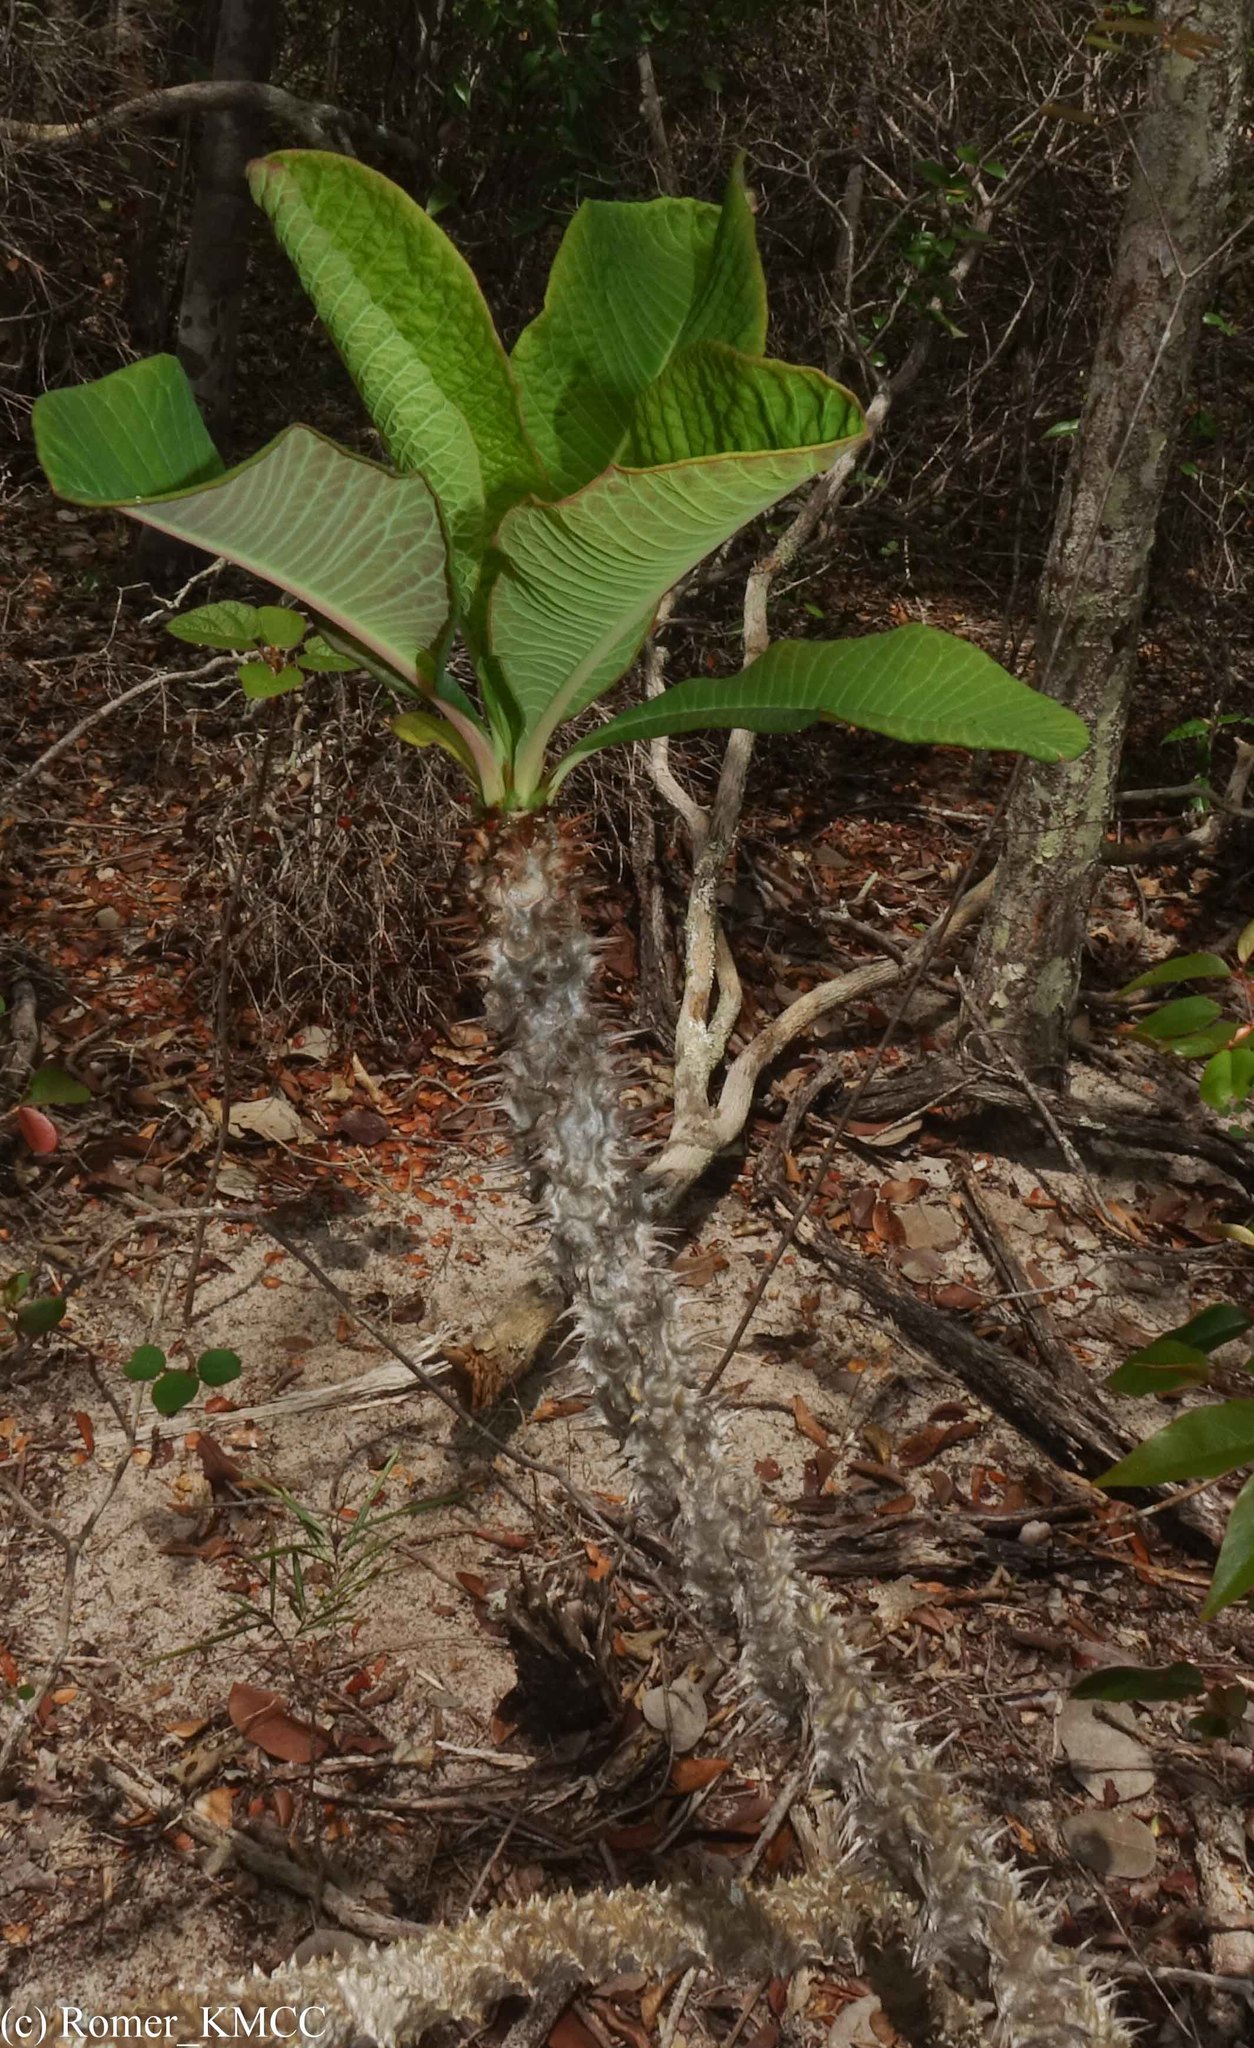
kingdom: Plantae
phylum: Tracheophyta
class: Magnoliopsida
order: Malpighiales
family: Euphorbiaceae
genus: Euphorbia
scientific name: Euphorbia perrieri
